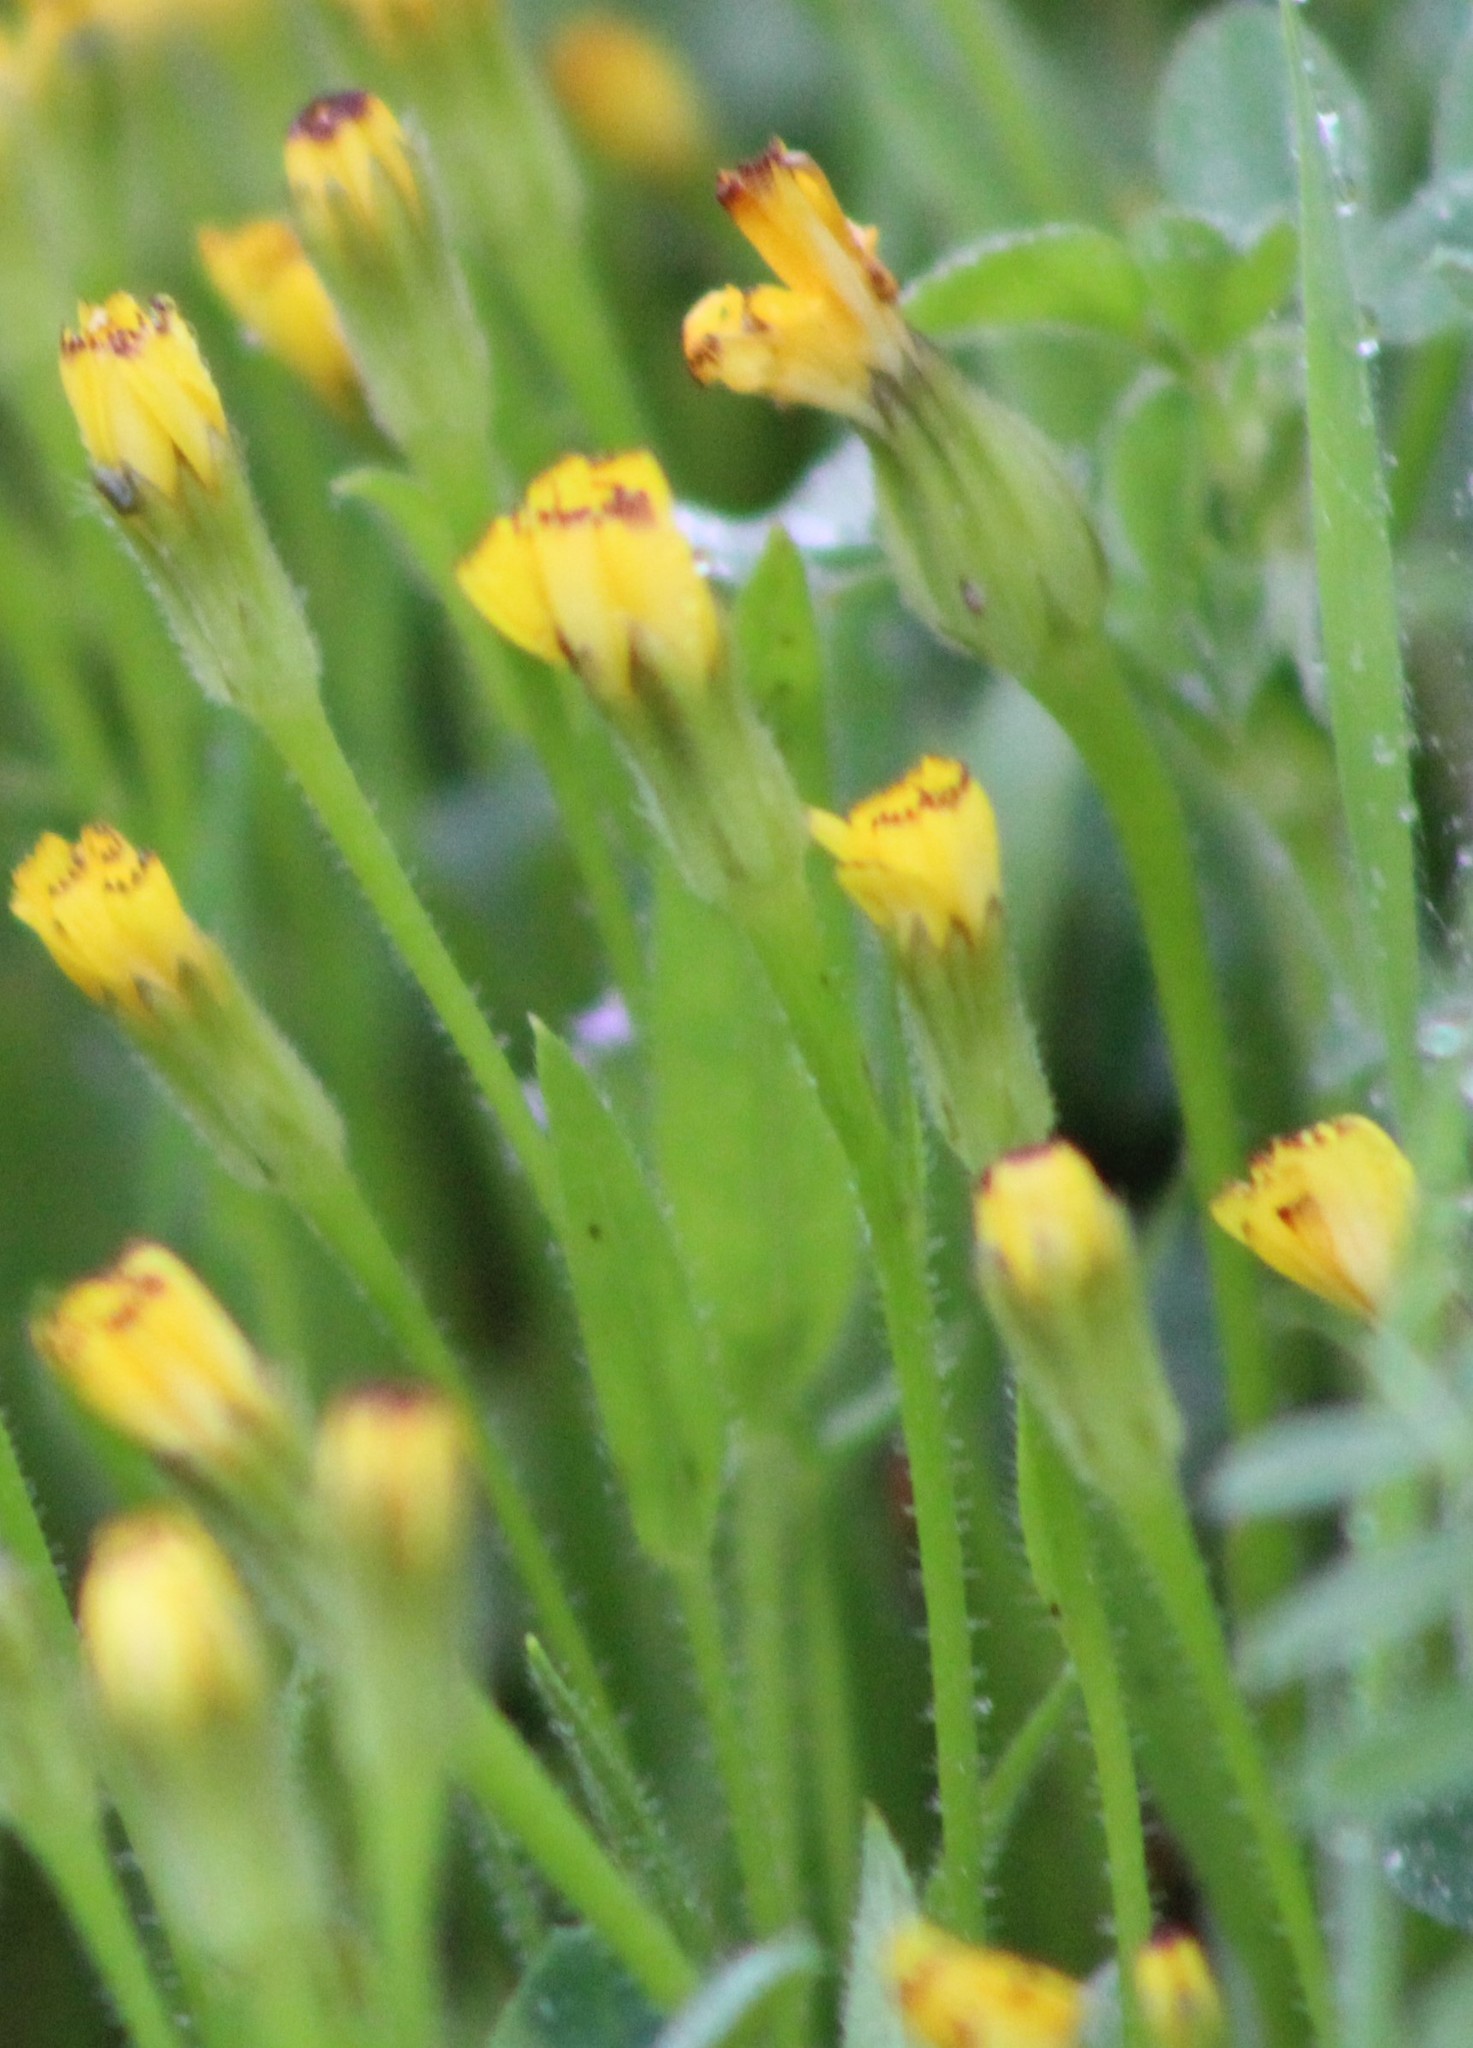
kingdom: Plantae
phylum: Tracheophyta
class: Magnoliopsida
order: Asterales
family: Asteraceae
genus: Hedypnois
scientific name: Hedypnois rhagadioloides
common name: Cretan weed
